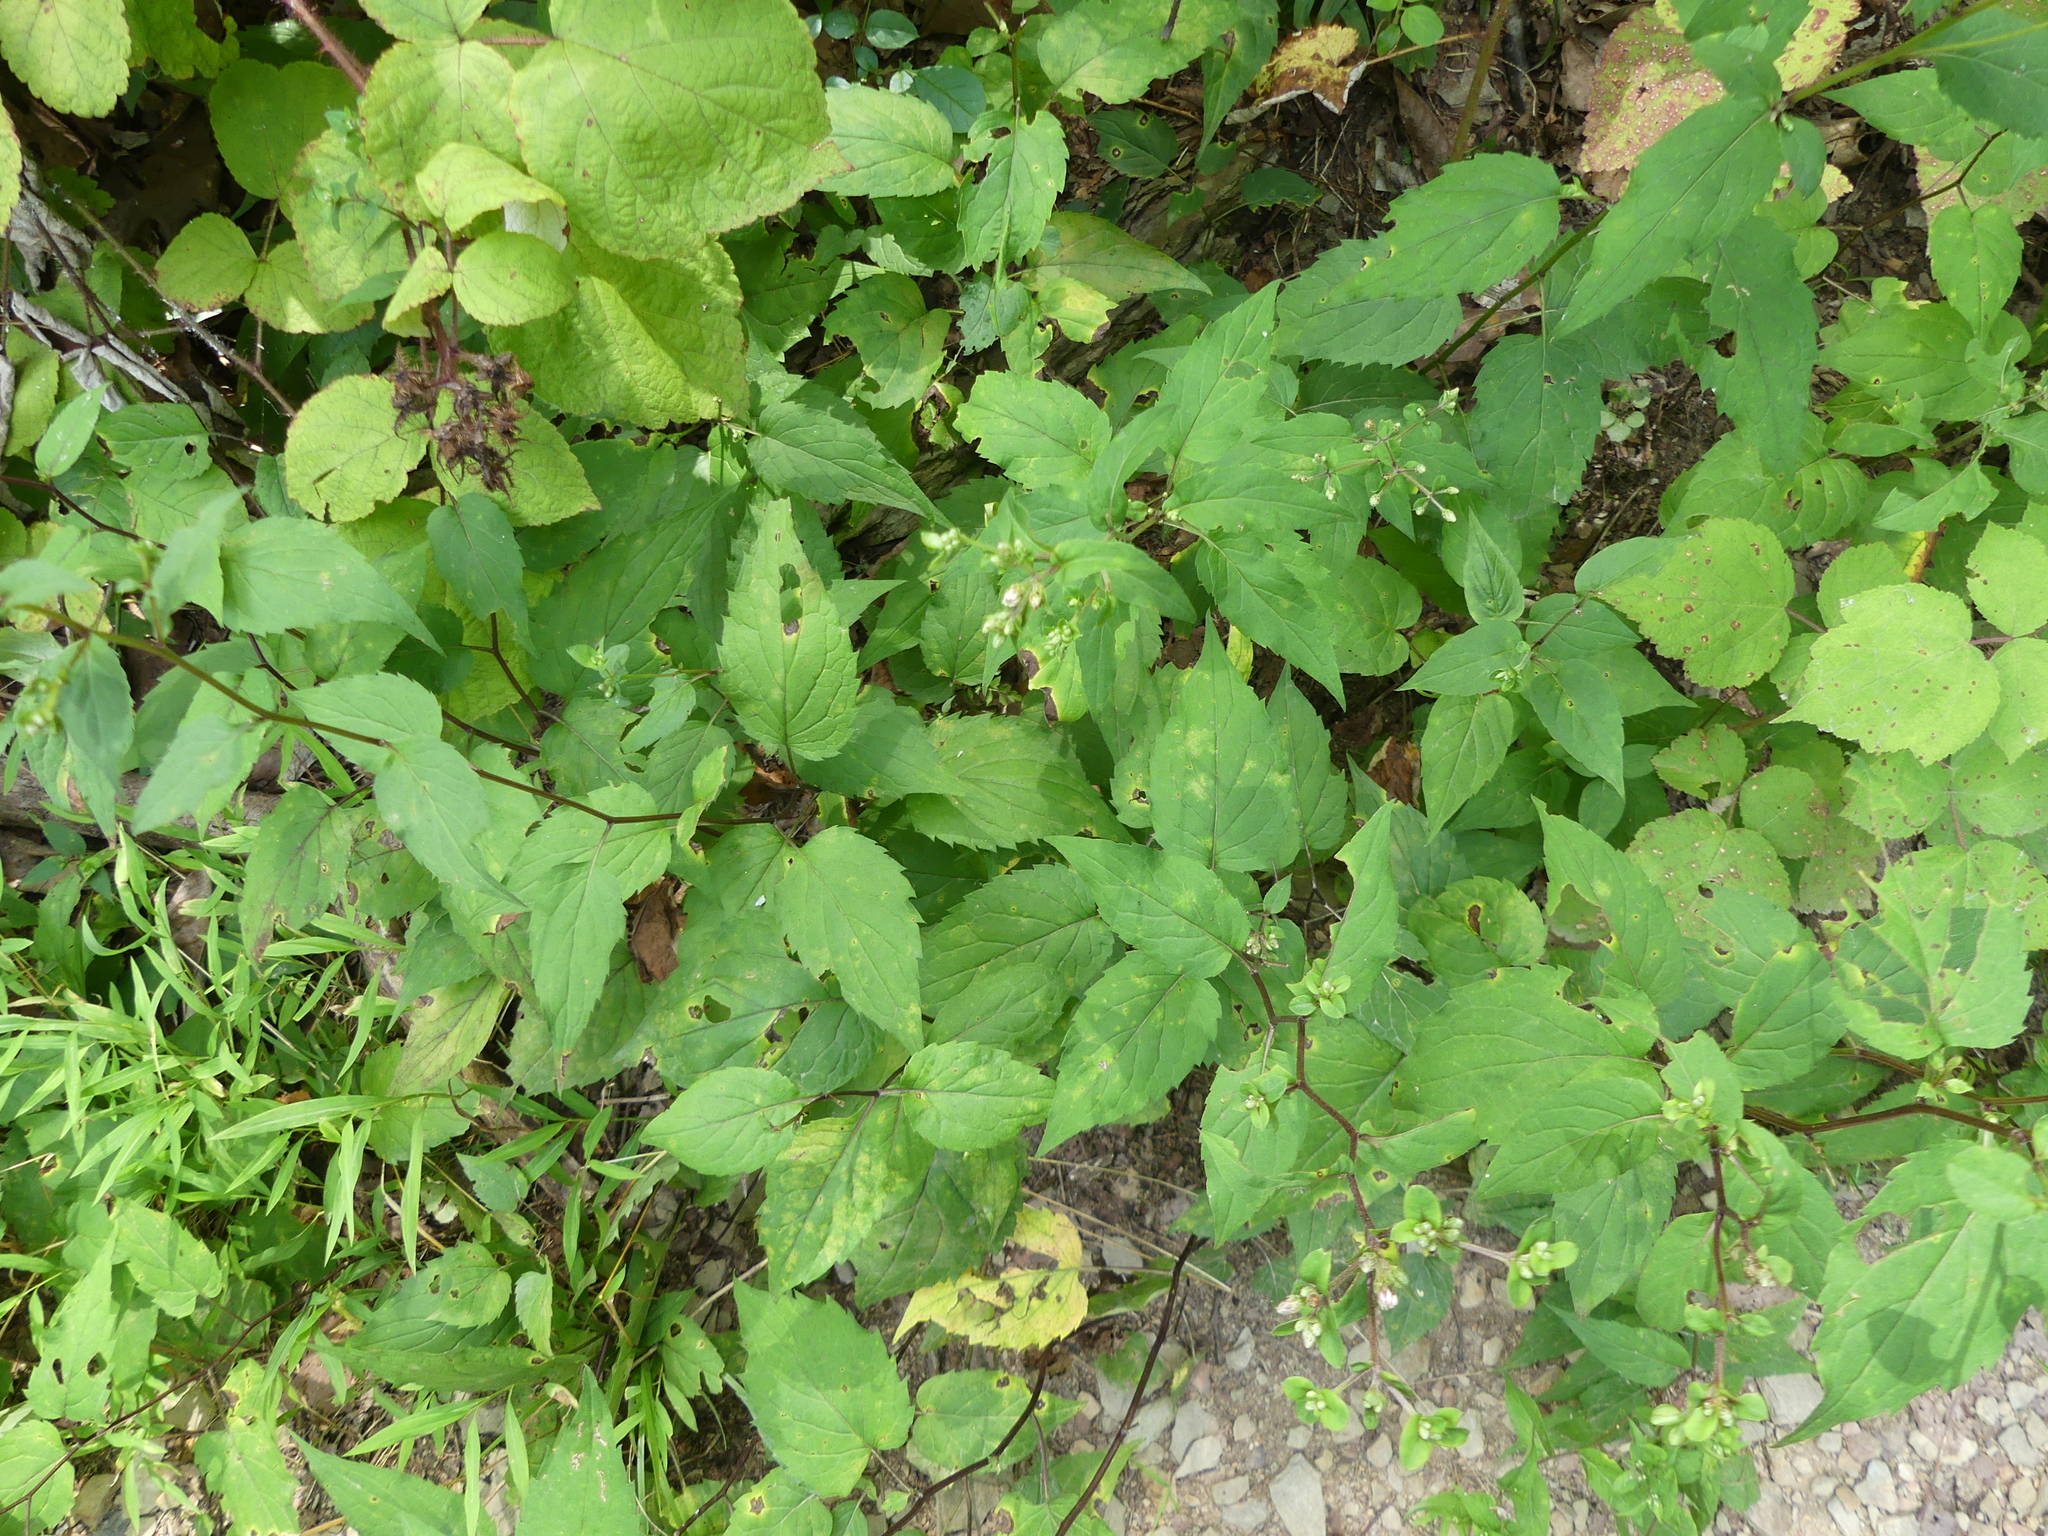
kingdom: Plantae
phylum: Tracheophyta
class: Magnoliopsida
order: Asterales
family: Asteraceae
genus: Eurybia
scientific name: Eurybia divaricata
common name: White wood aster
